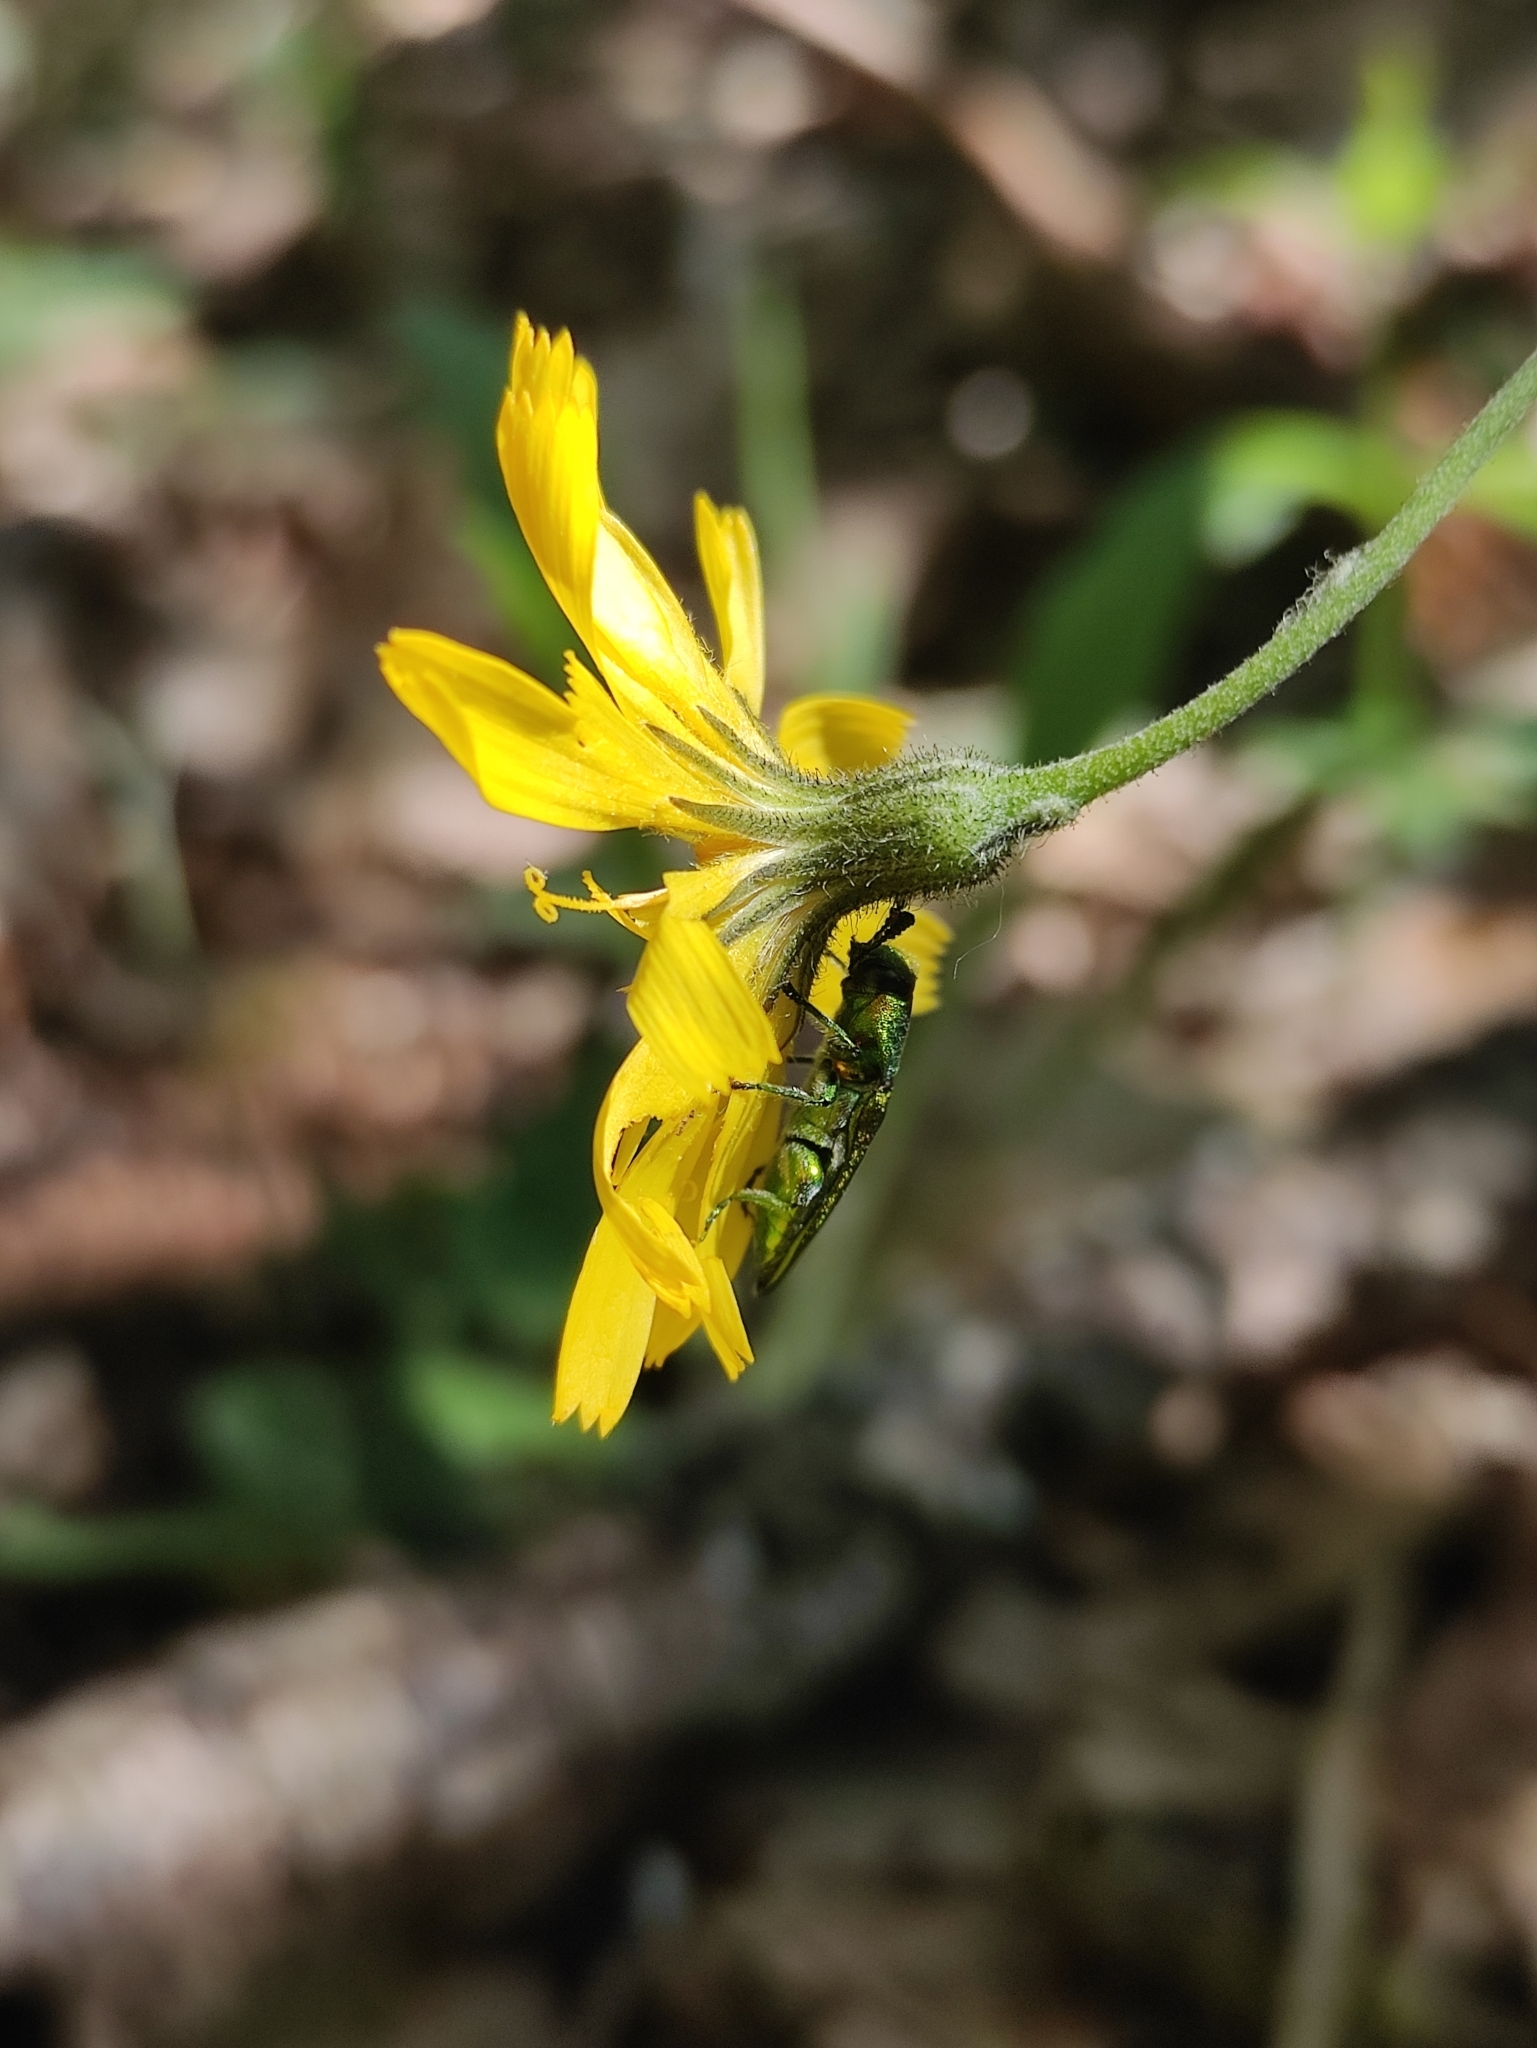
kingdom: Animalia
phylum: Arthropoda
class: Insecta
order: Coleoptera
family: Buprestidae
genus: Anthaxia
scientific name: Anthaxia hungarica
